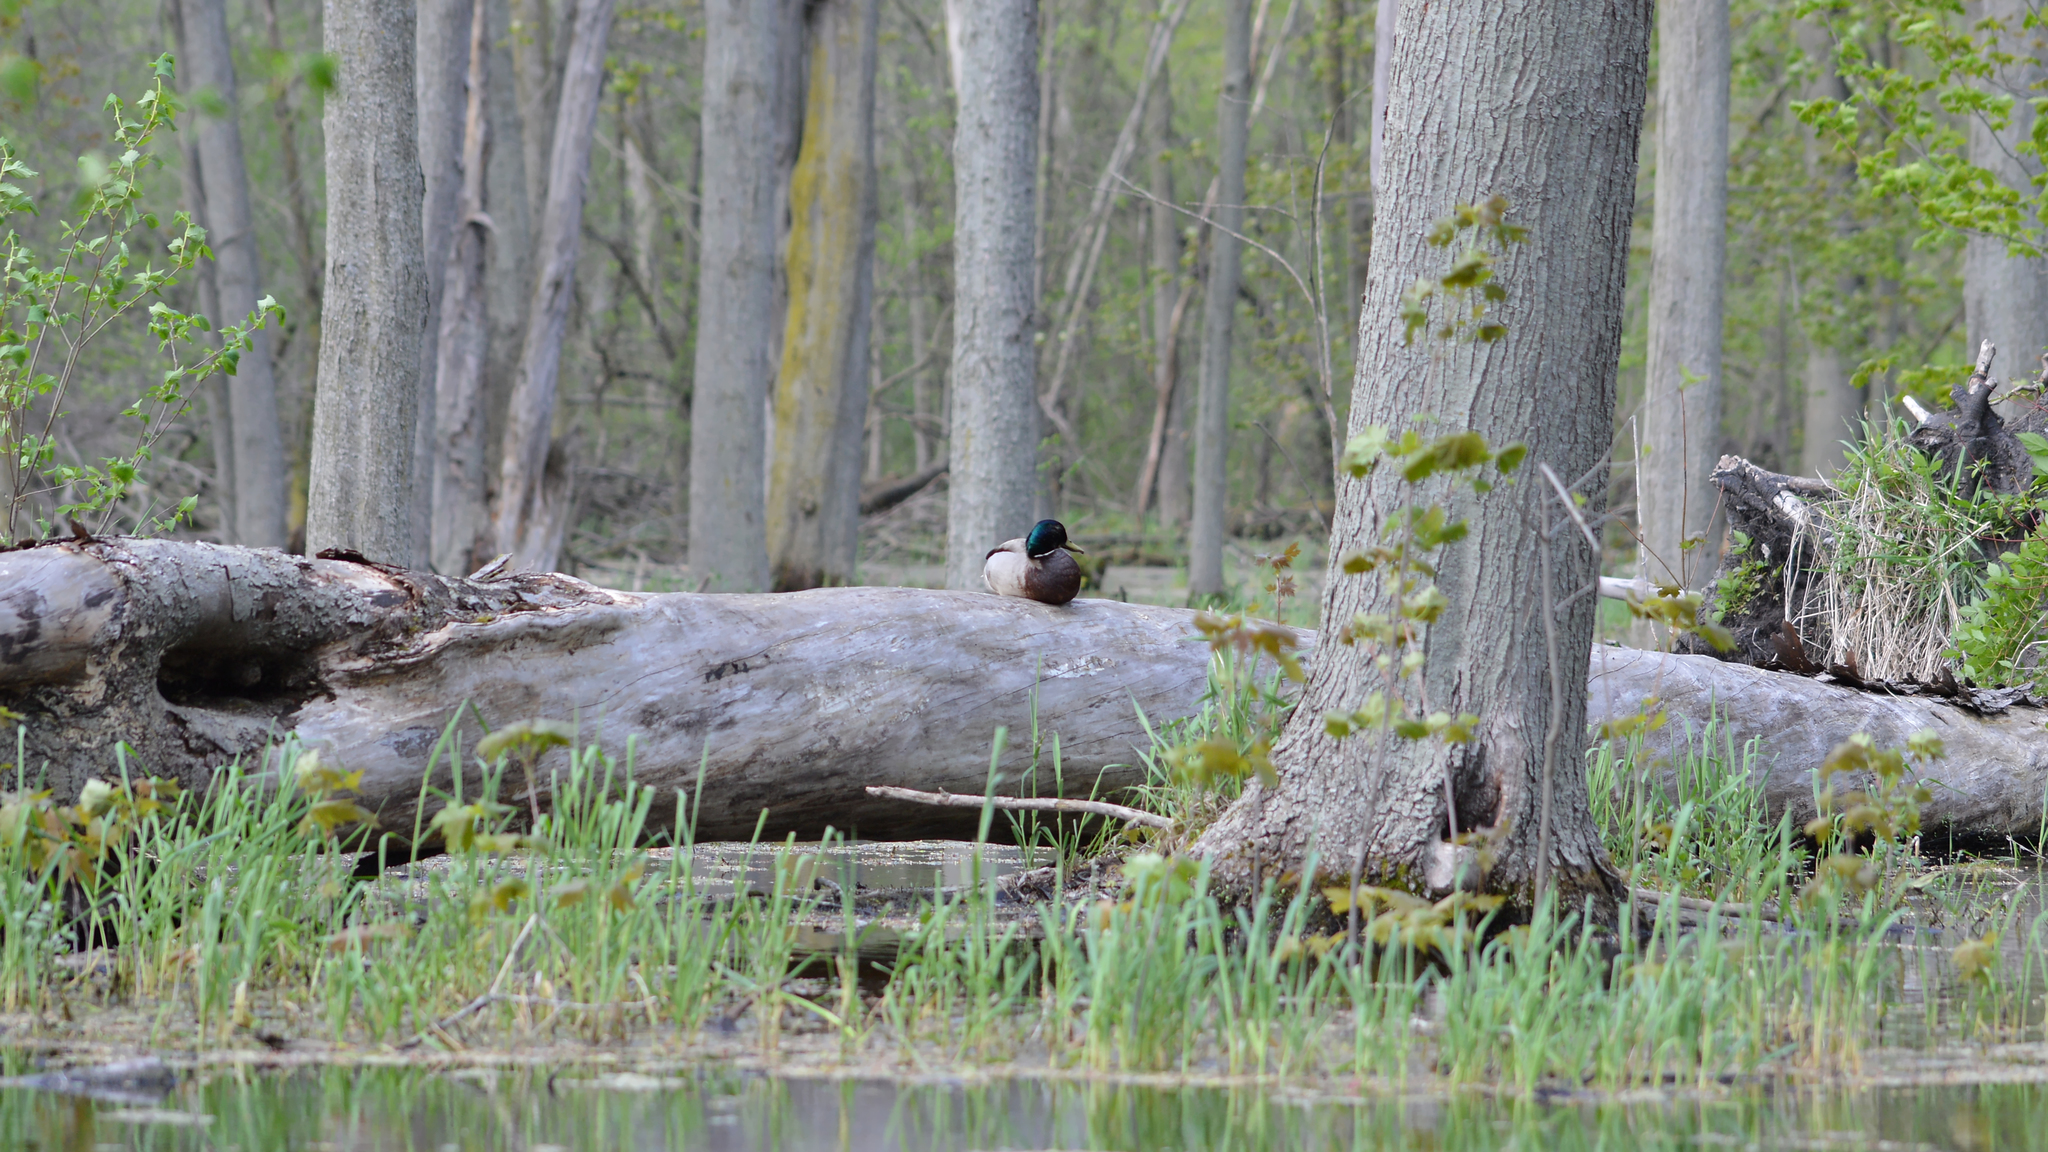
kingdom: Animalia
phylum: Chordata
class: Aves
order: Anseriformes
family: Anatidae
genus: Anas
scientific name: Anas platyrhynchos
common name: Mallard
